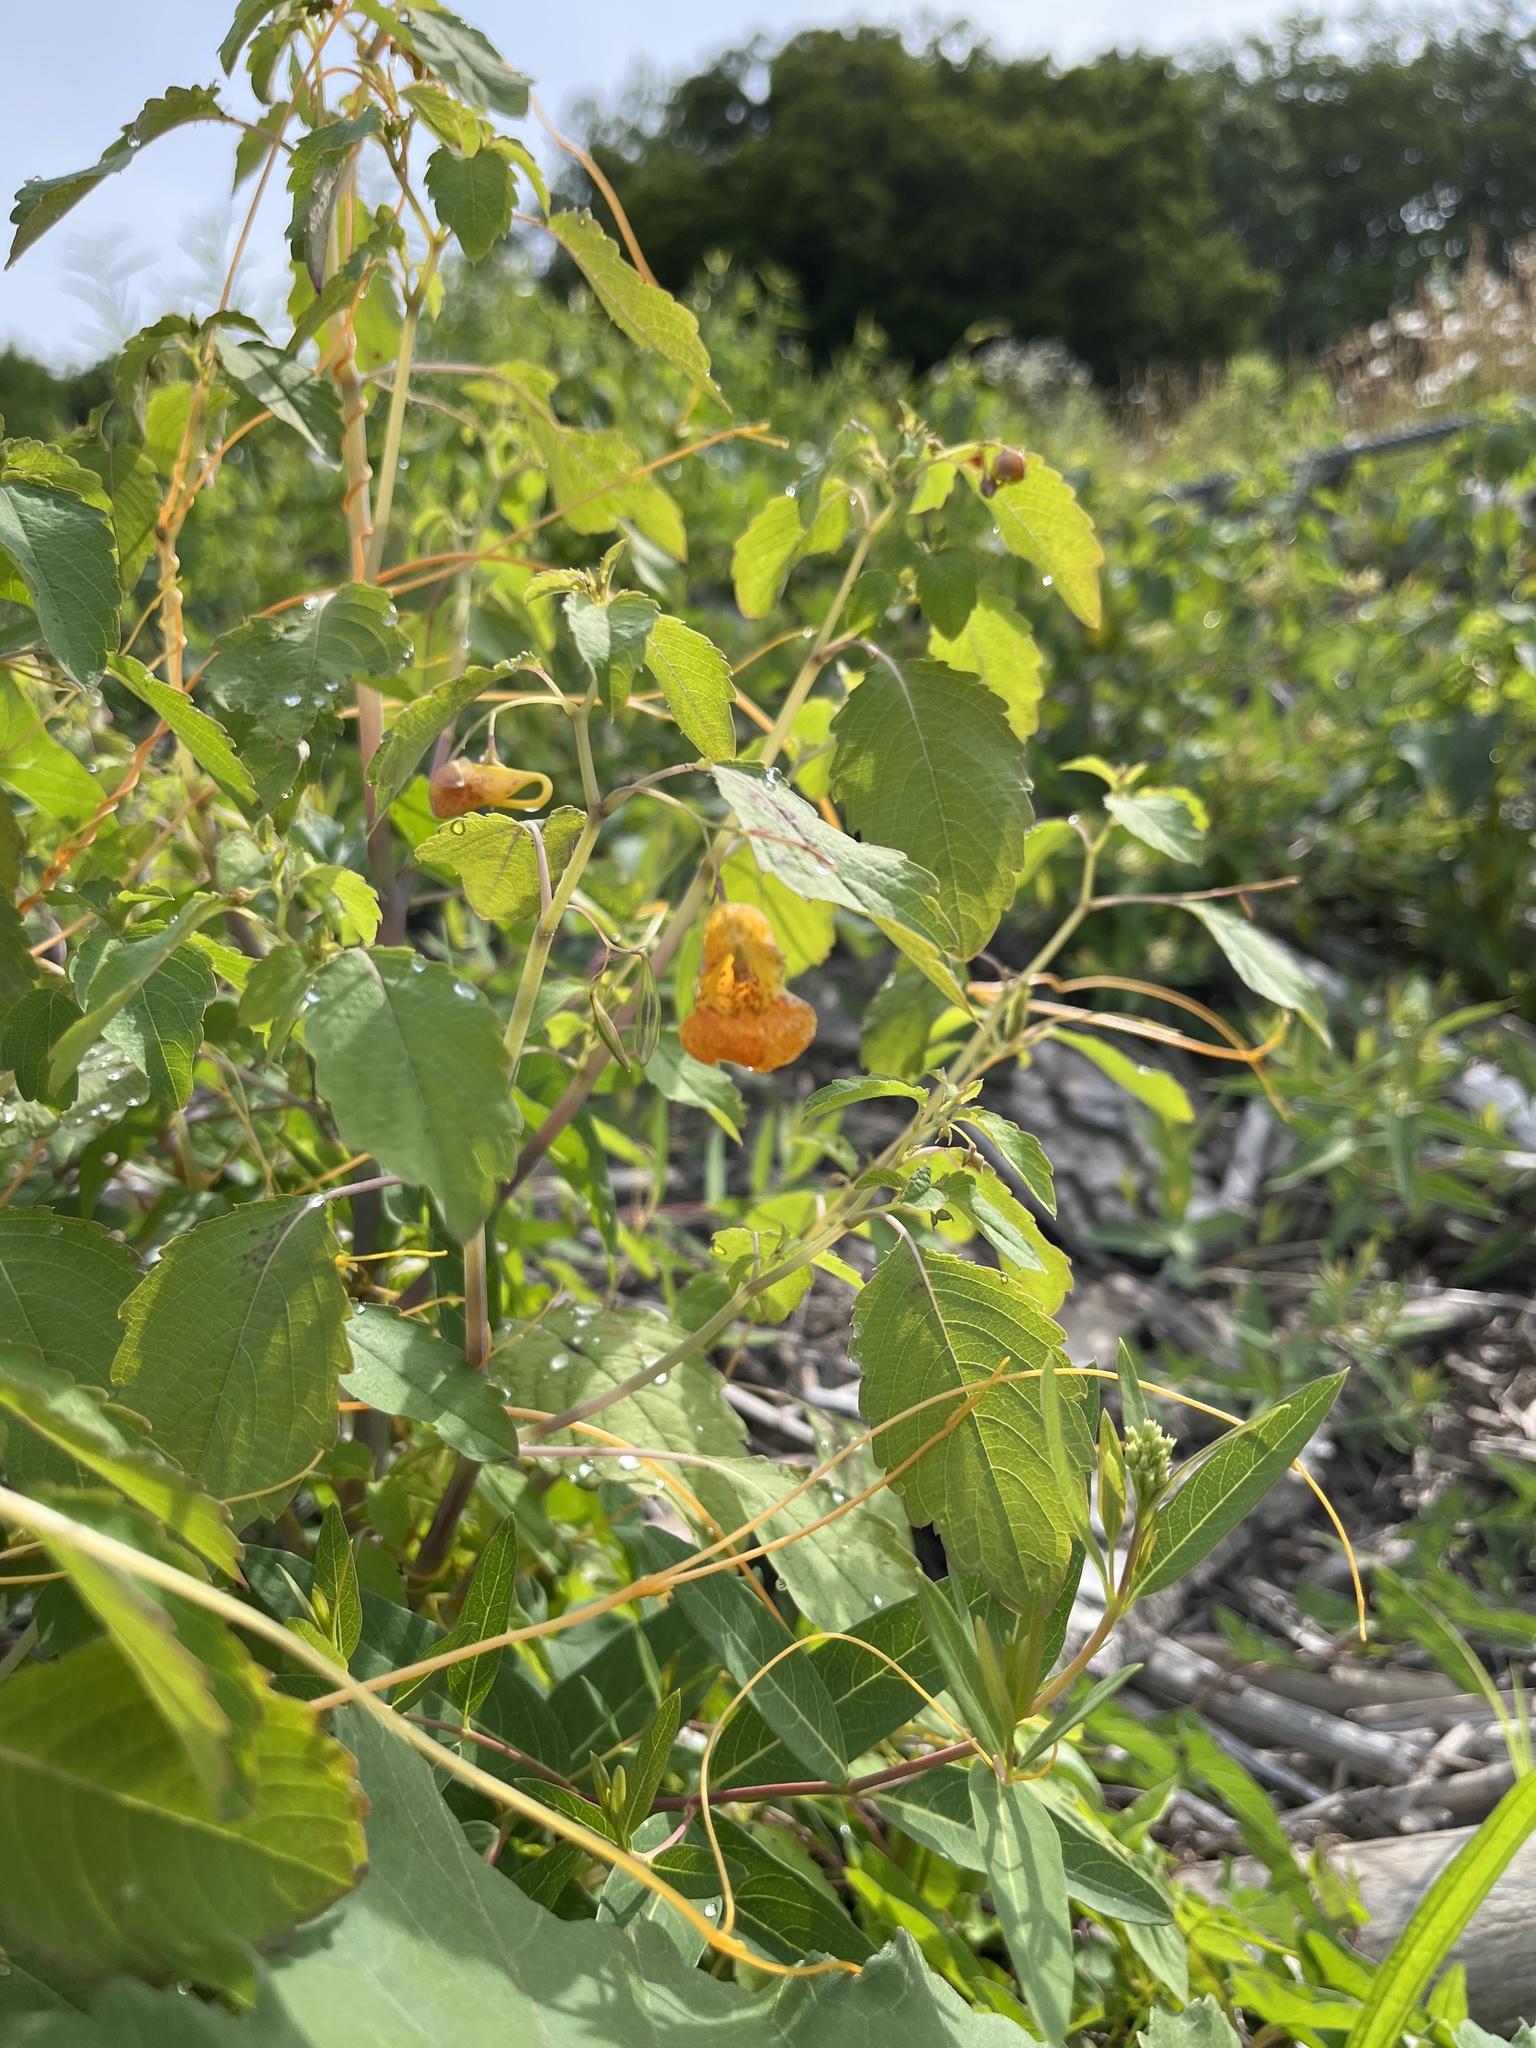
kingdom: Plantae
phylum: Tracheophyta
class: Magnoliopsida
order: Ericales
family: Balsaminaceae
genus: Impatiens
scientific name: Impatiens capensis
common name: Orange balsam
